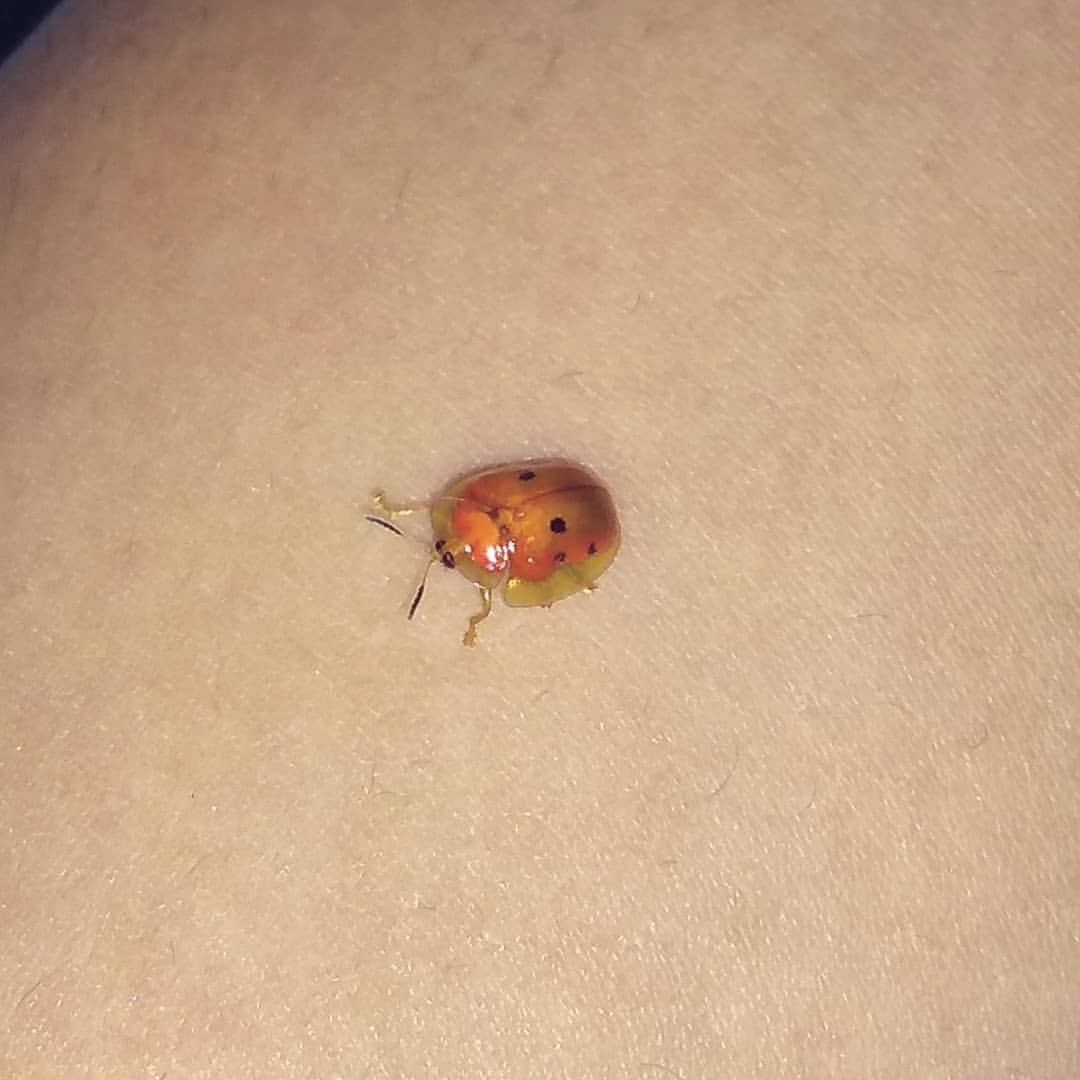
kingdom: Animalia
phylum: Arthropoda
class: Insecta
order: Coleoptera
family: Chrysomelidae
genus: Charidotella
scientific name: Charidotella sexpunctata
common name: Golden tortoise beetle
